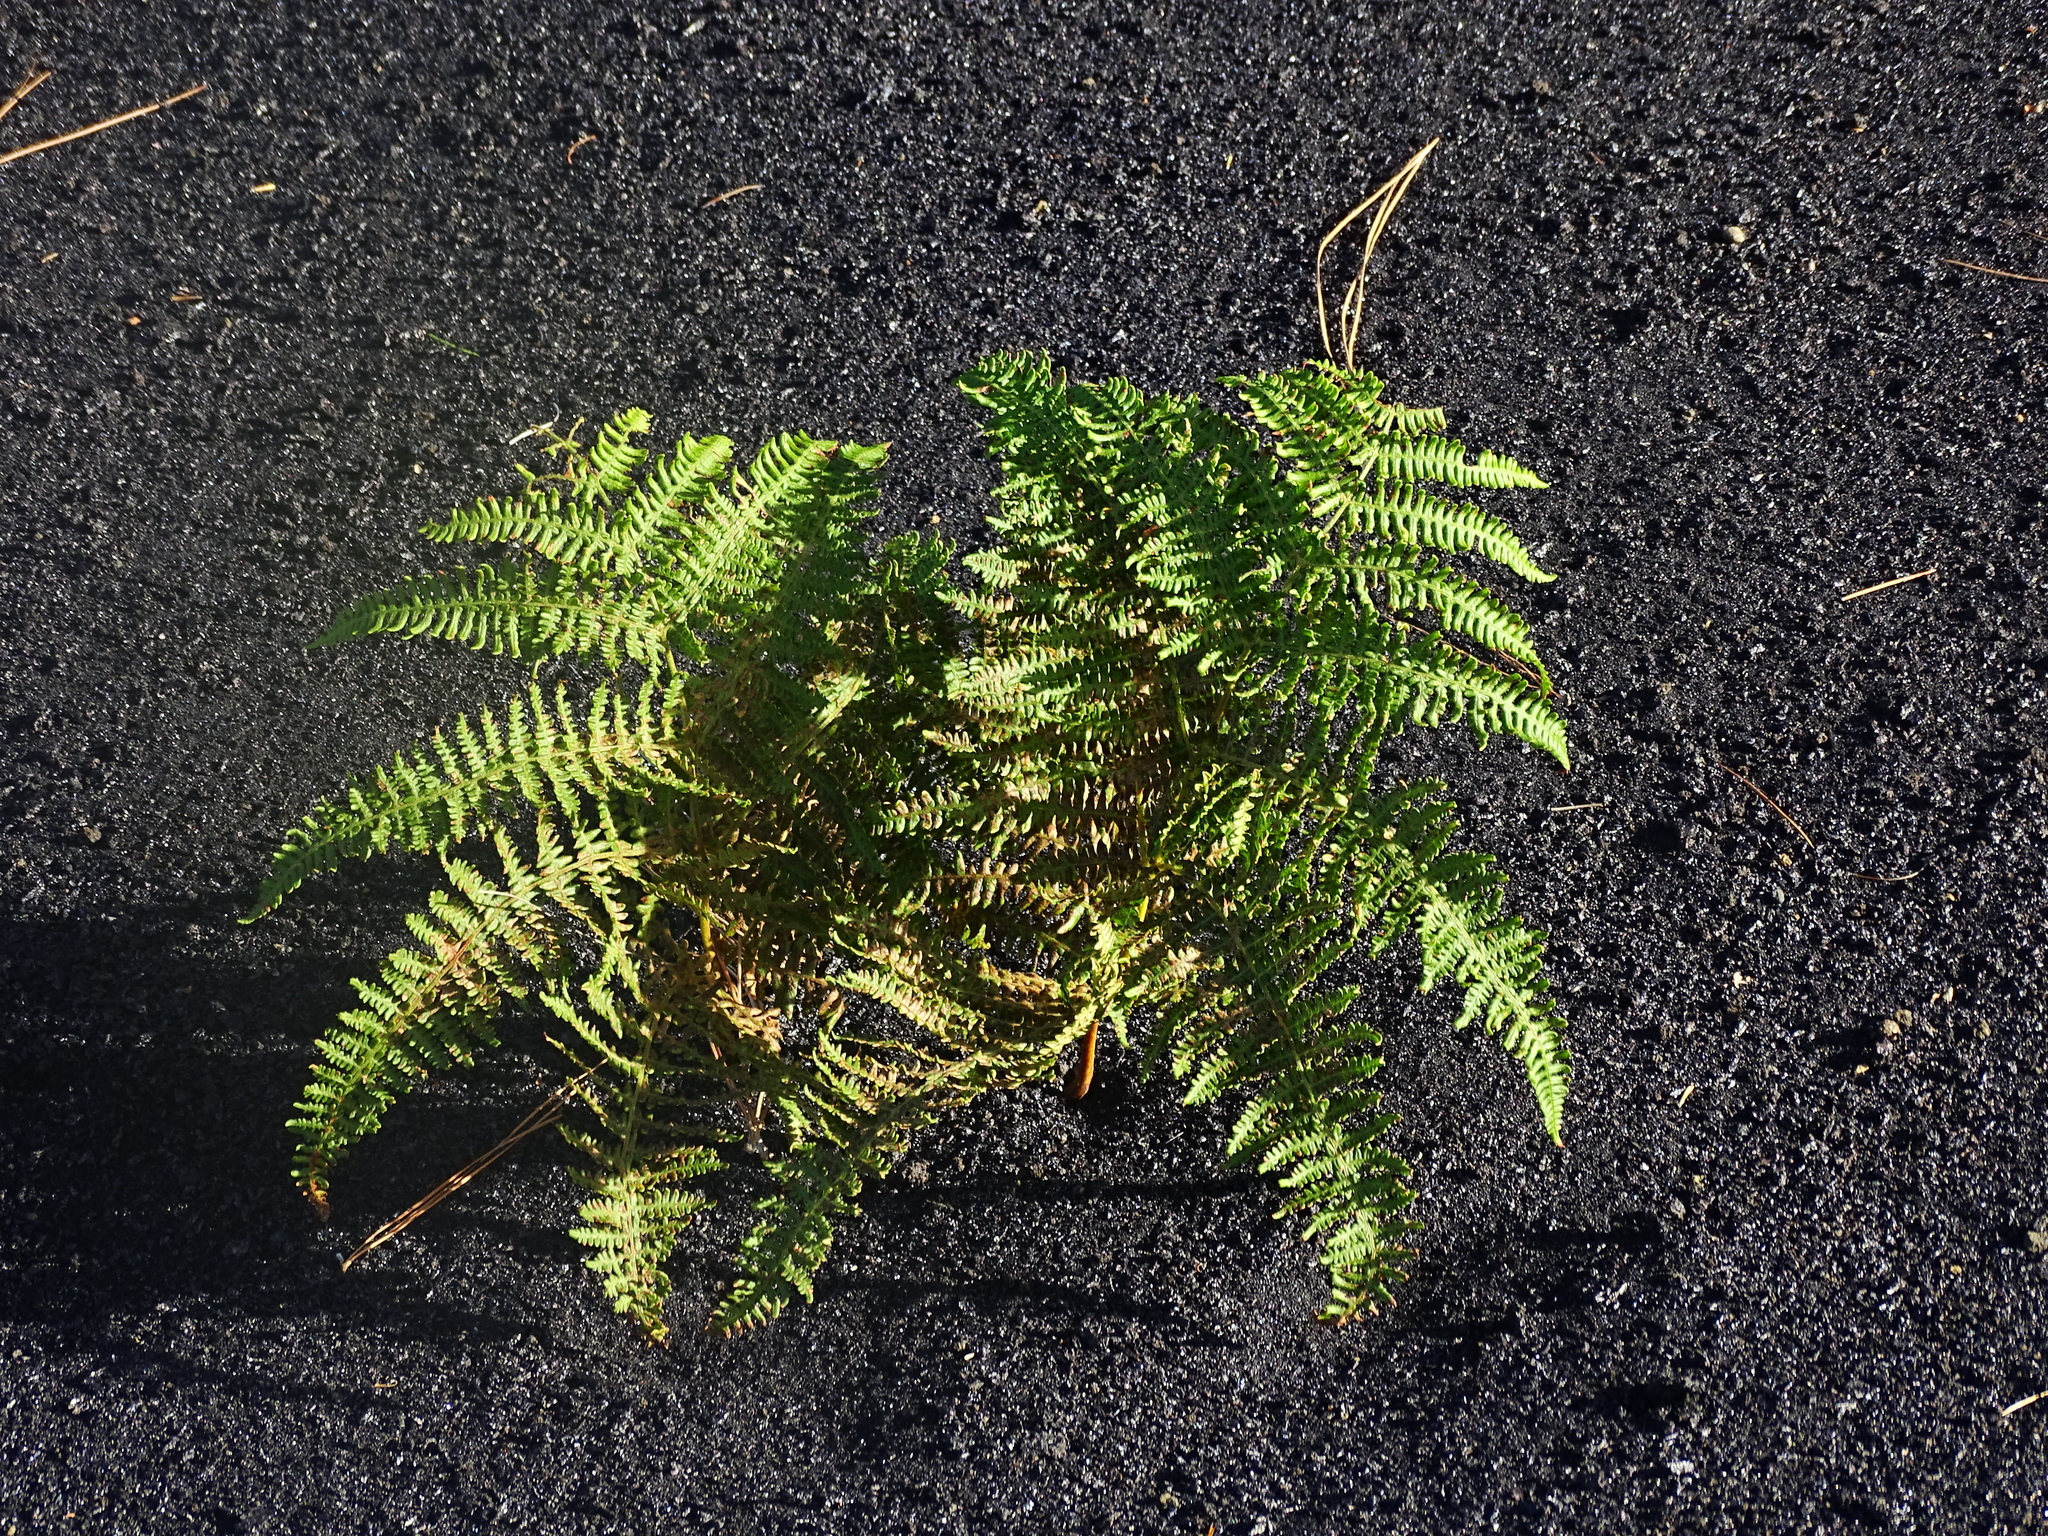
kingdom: Plantae
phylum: Tracheophyta
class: Polypodiopsida
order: Polypodiales
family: Dennstaedtiaceae
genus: Pteridium
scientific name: Pteridium aquilinum
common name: Bracken
